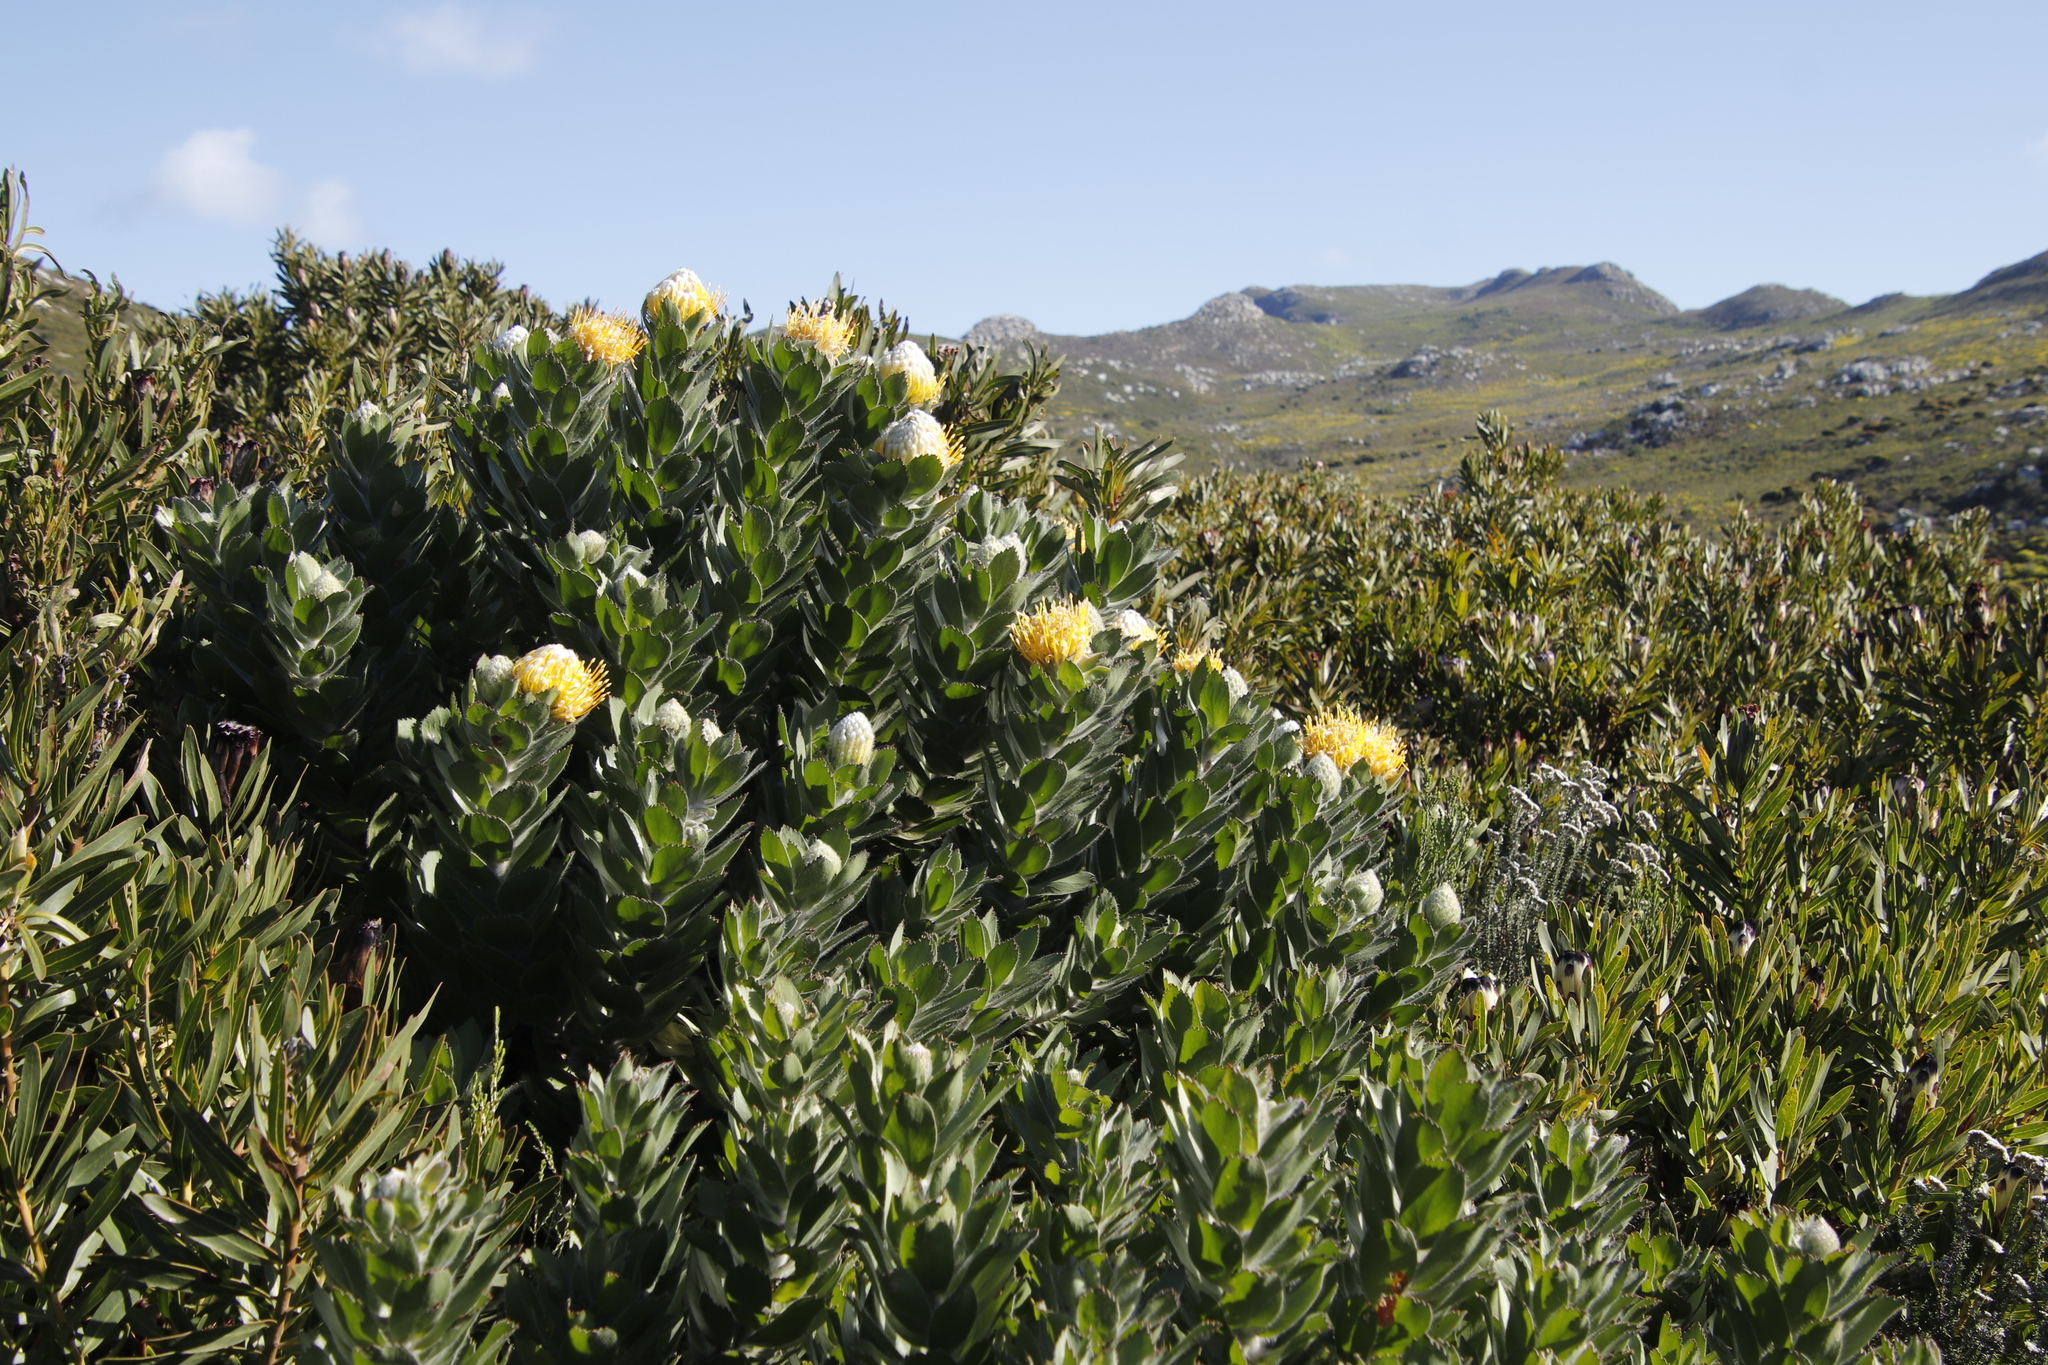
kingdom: Plantae
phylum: Tracheophyta
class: Magnoliopsida
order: Proteales
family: Proteaceae
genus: Leucospermum
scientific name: Leucospermum conocarpodendron
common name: Tree pincushion
